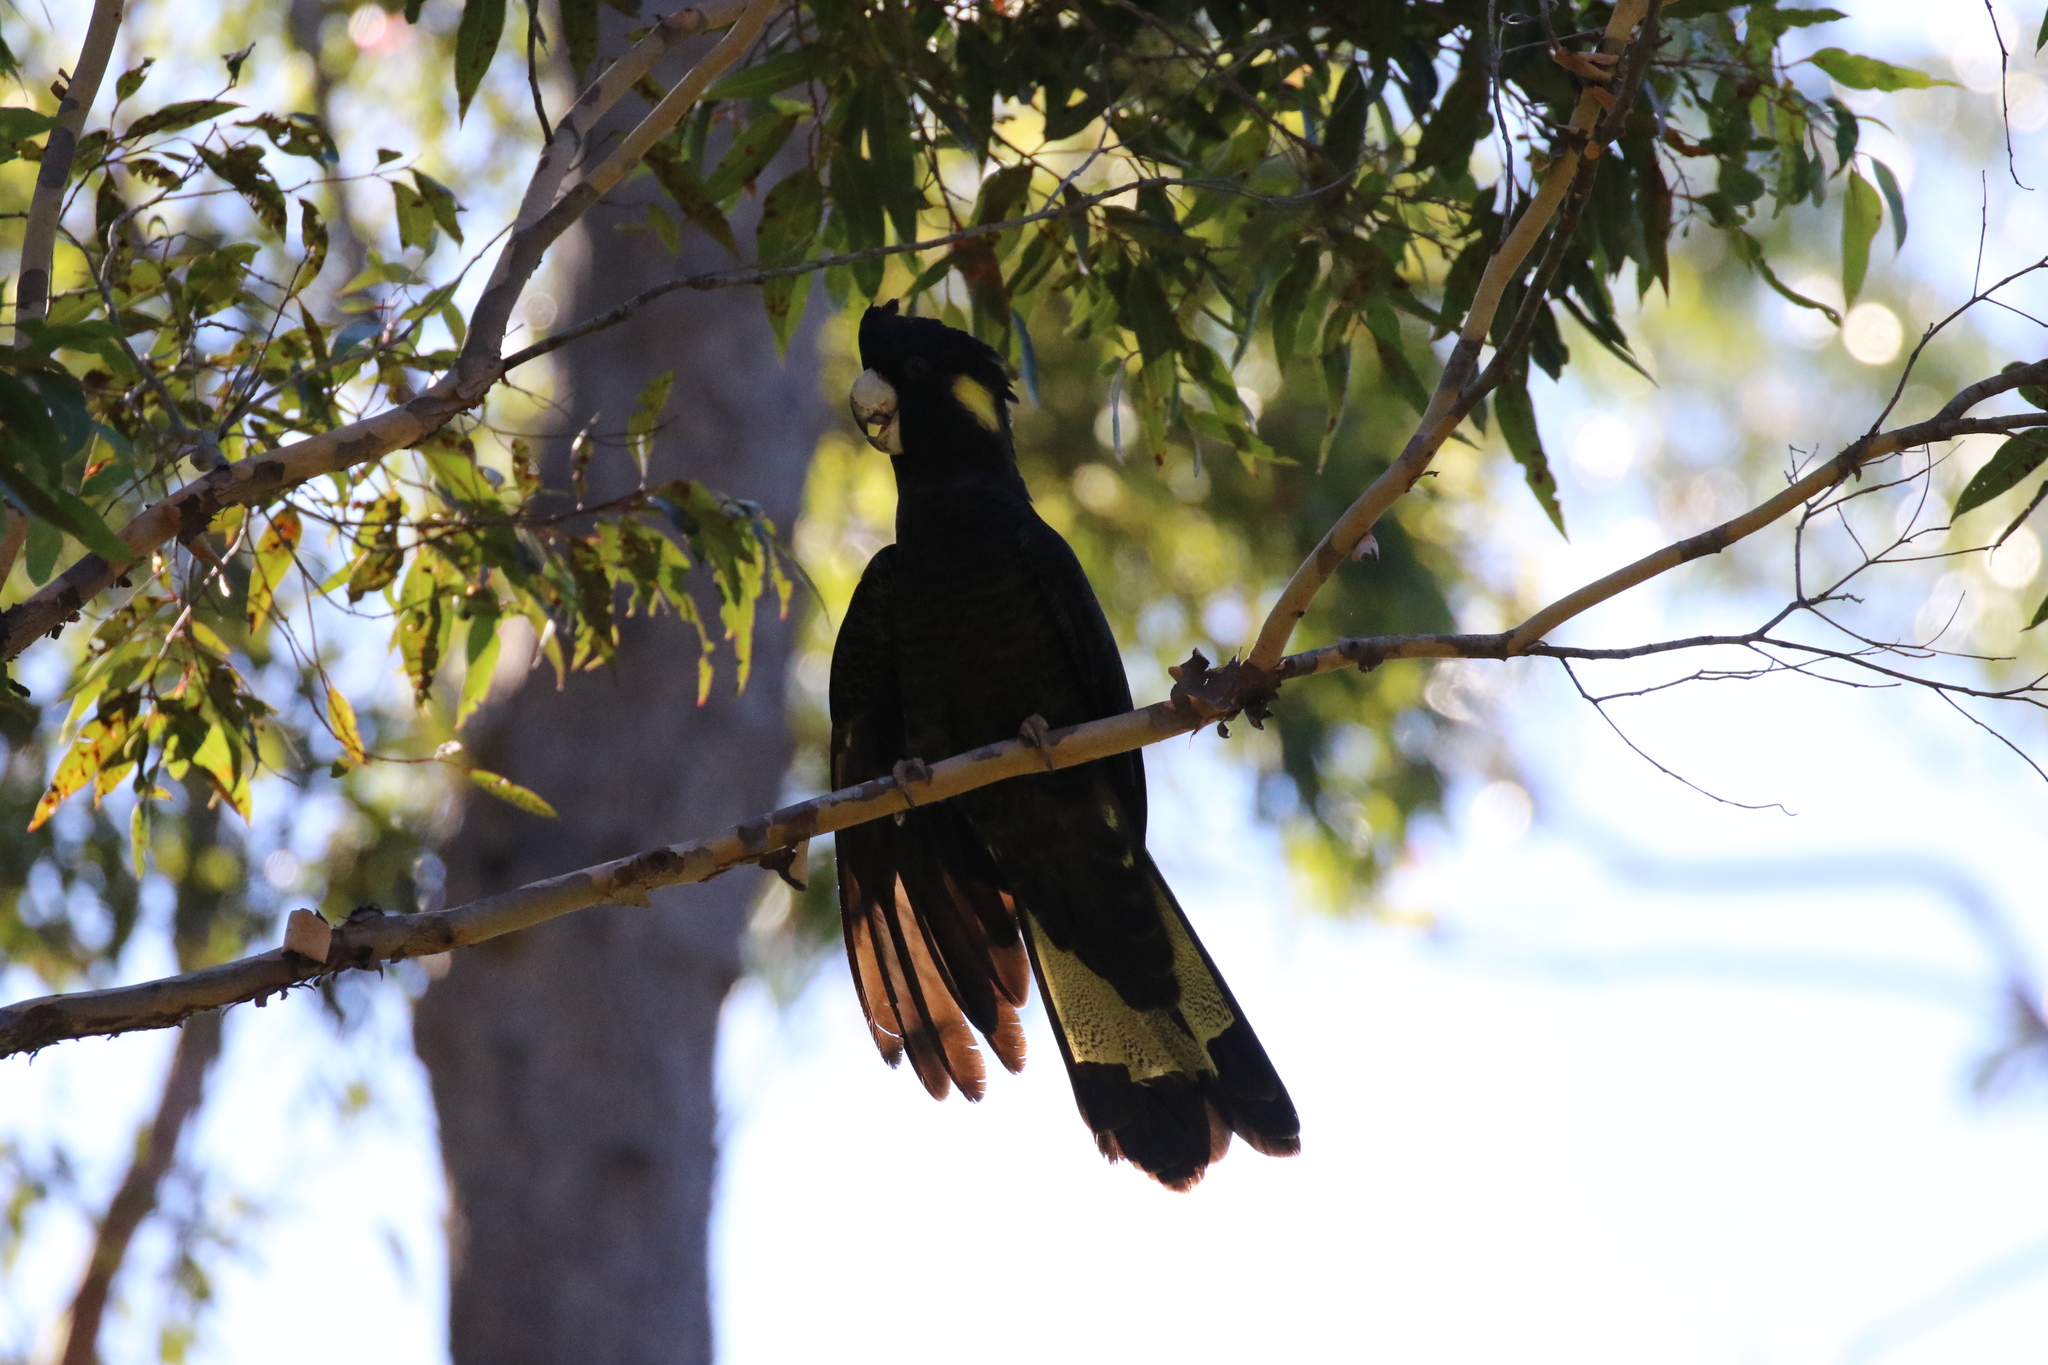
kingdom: Animalia
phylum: Chordata
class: Aves
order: Psittaciformes
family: Cacatuidae
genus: Zanda
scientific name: Zanda funerea
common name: Yellow-tailed black-cockatoo
